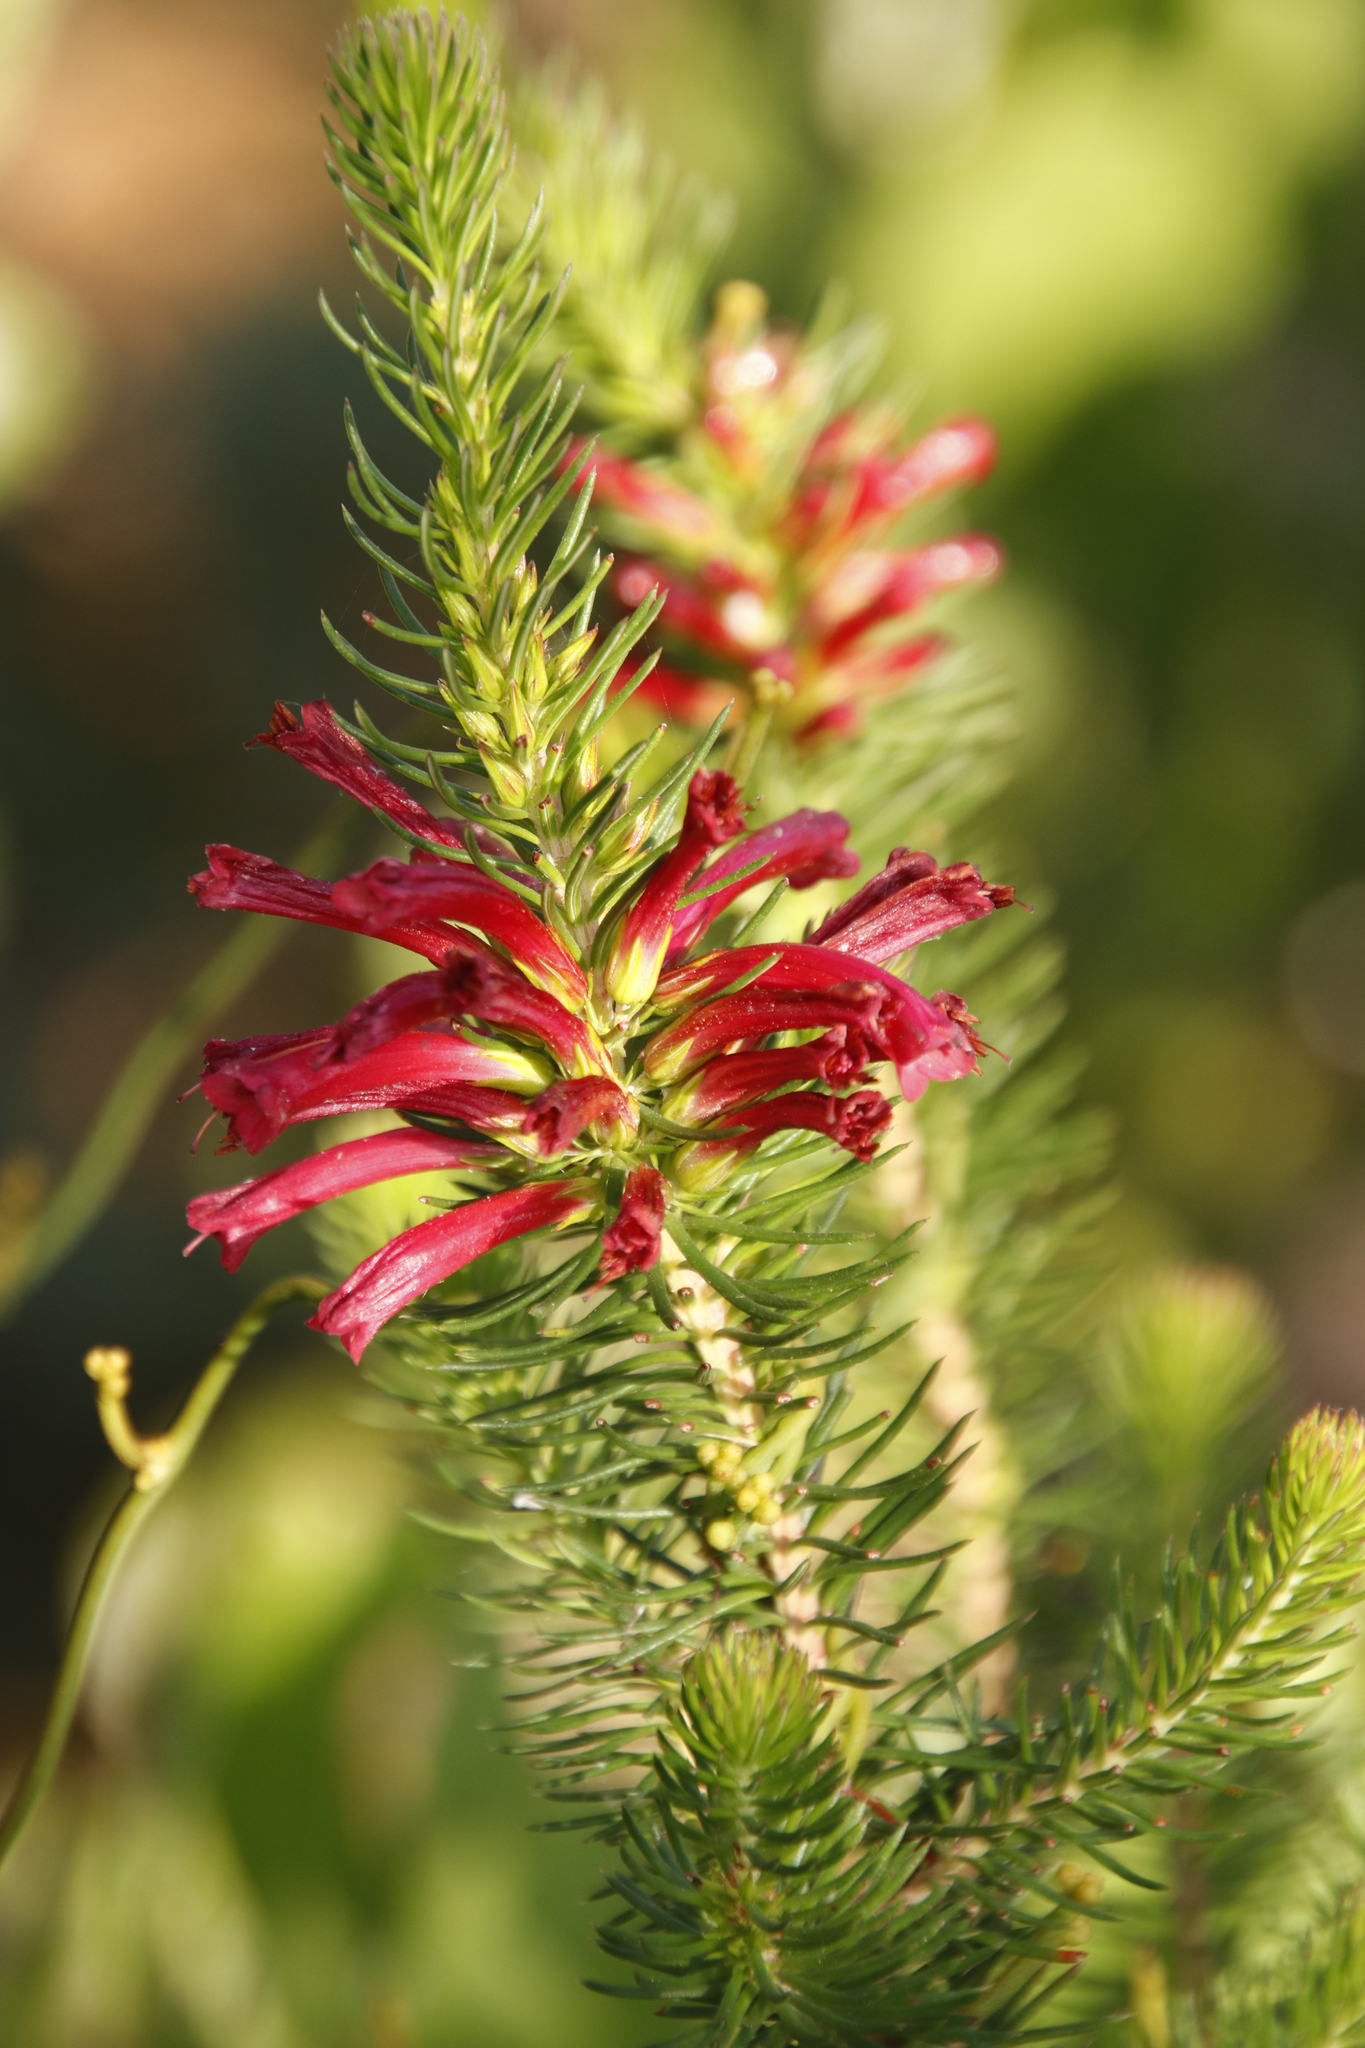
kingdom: Plantae
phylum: Tracheophyta
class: Magnoliopsida
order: Ericales
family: Ericaceae
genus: Erica
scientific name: Erica abietina
